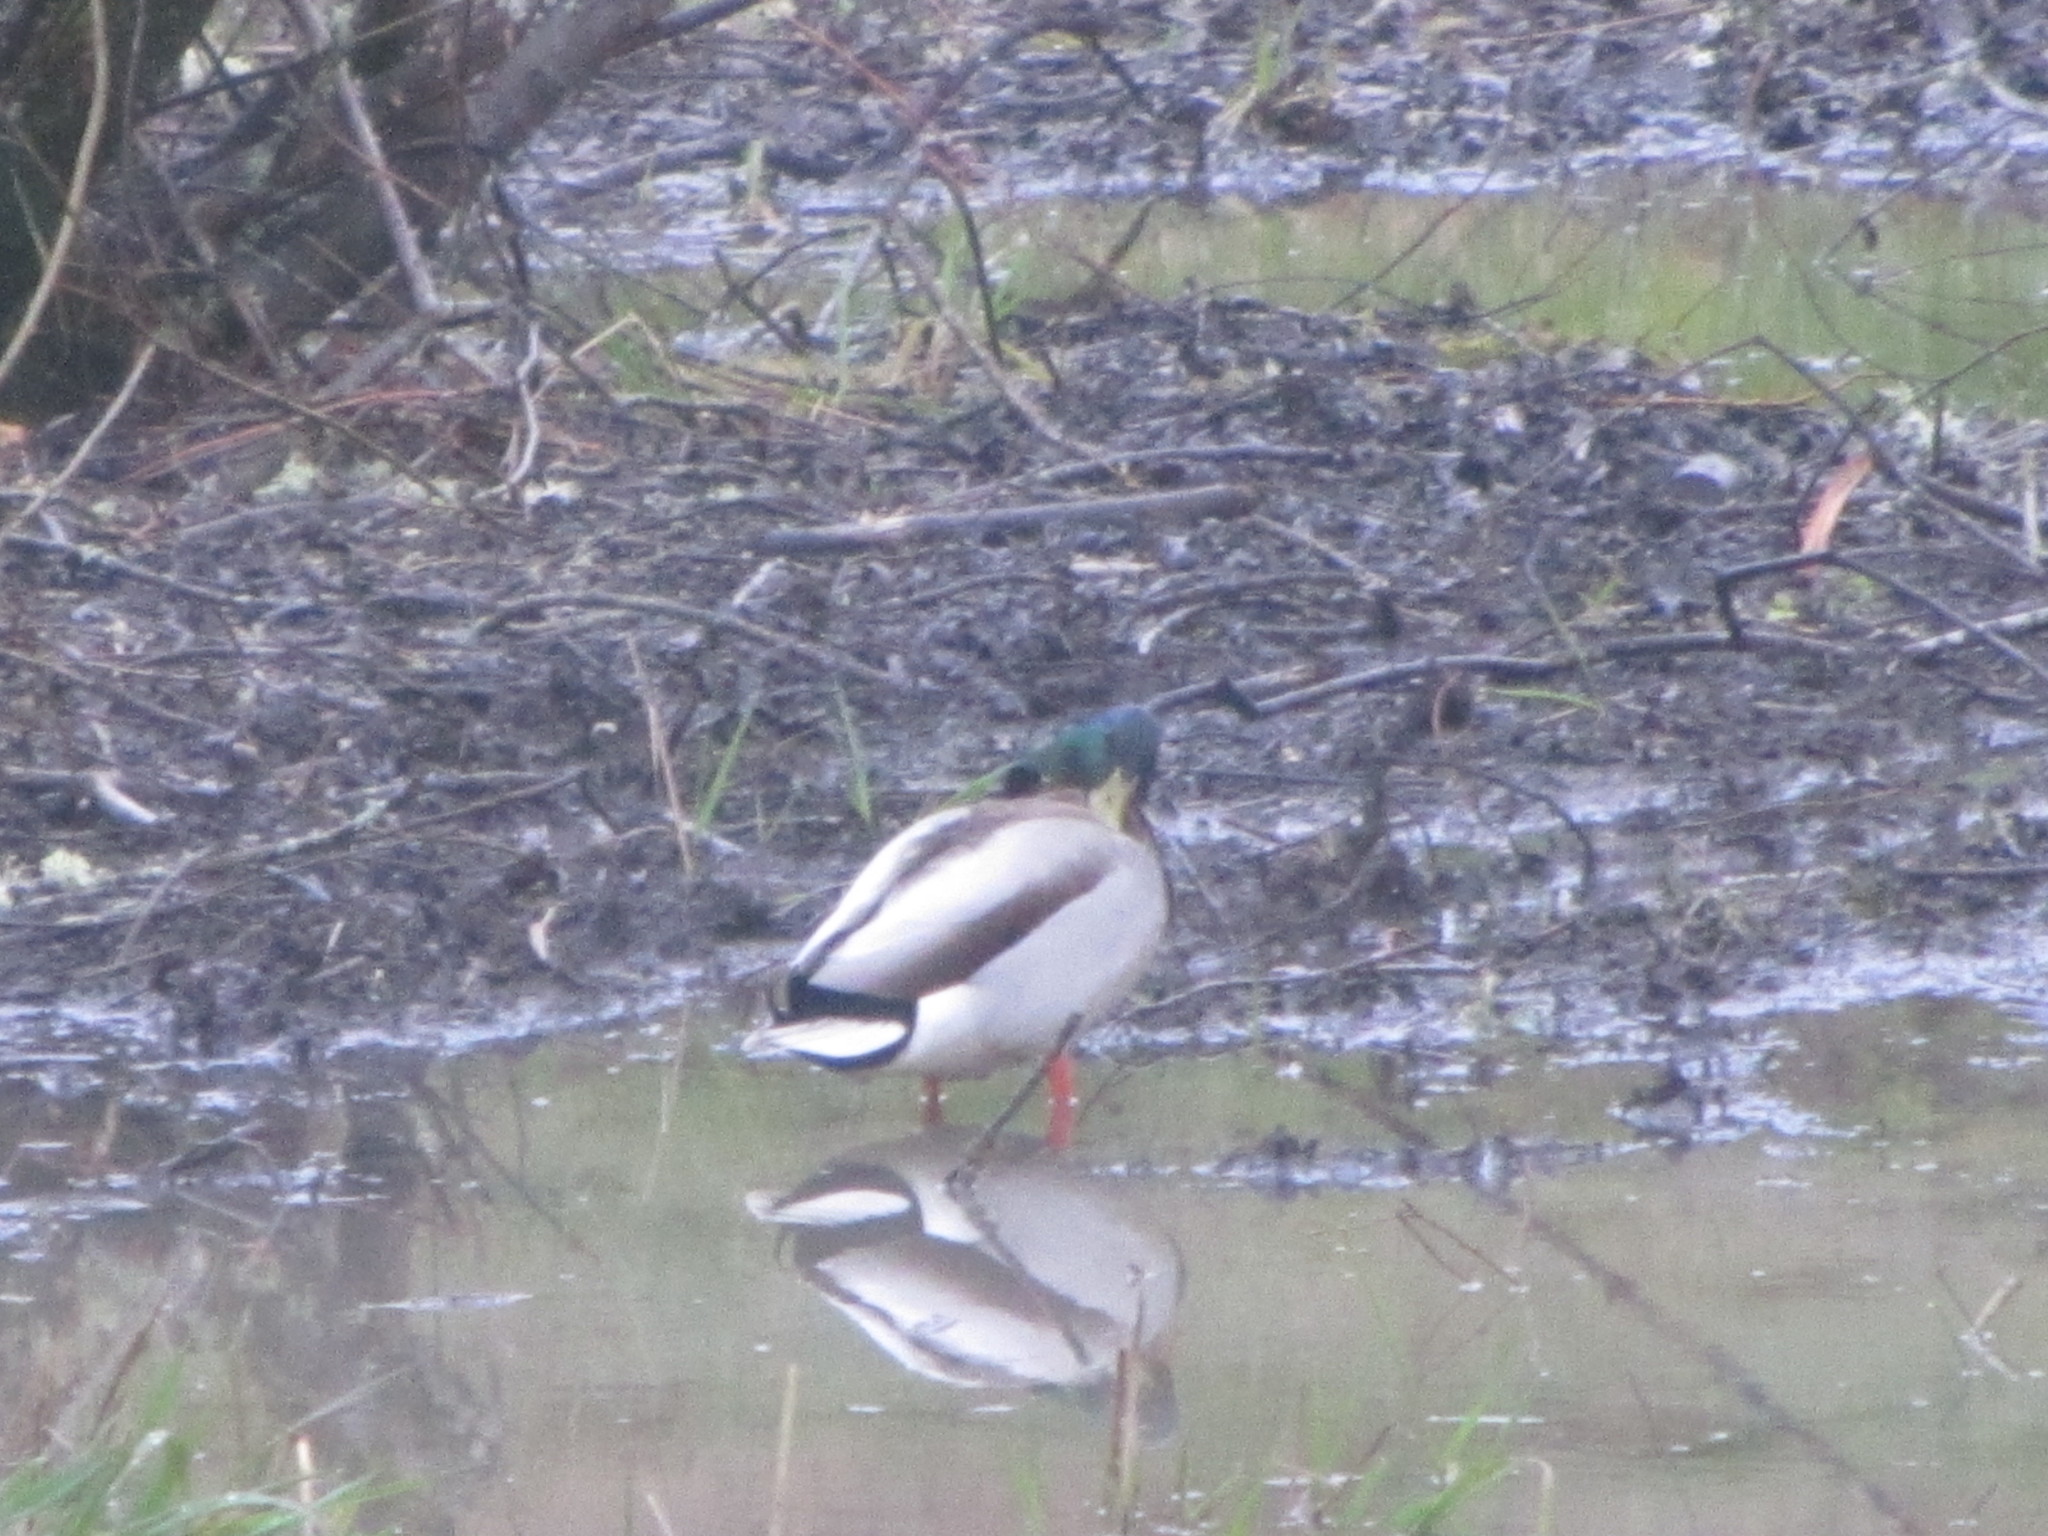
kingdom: Animalia
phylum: Chordata
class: Aves
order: Anseriformes
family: Anatidae
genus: Anas
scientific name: Anas platyrhynchos
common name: Mallard
